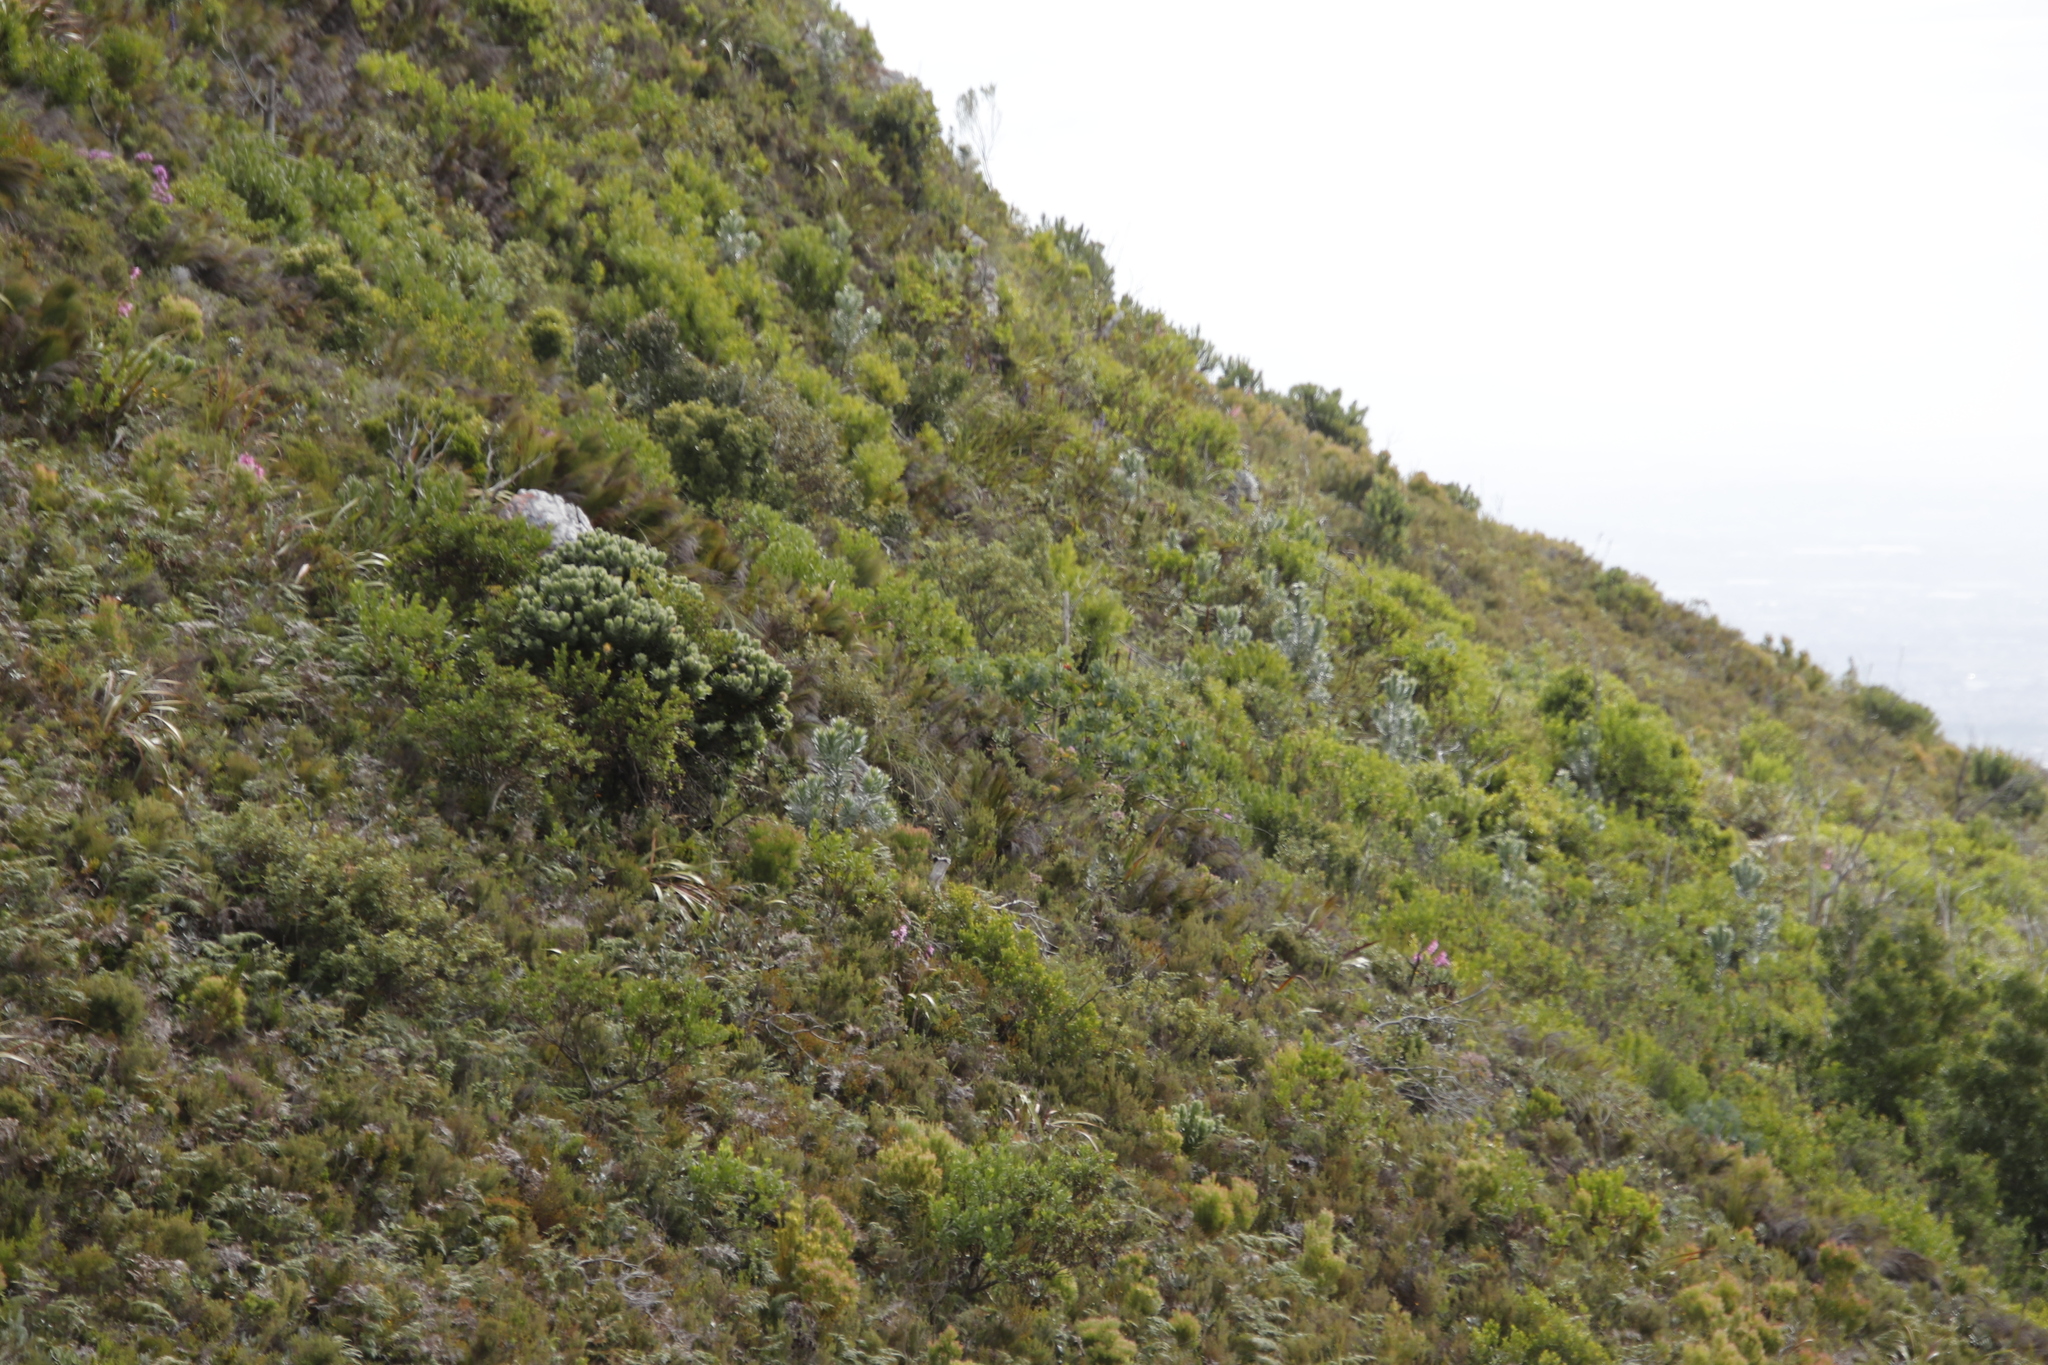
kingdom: Plantae
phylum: Tracheophyta
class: Magnoliopsida
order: Proteales
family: Proteaceae
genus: Leucadendron
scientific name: Leucadendron argenteum
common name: Cape silver tree
